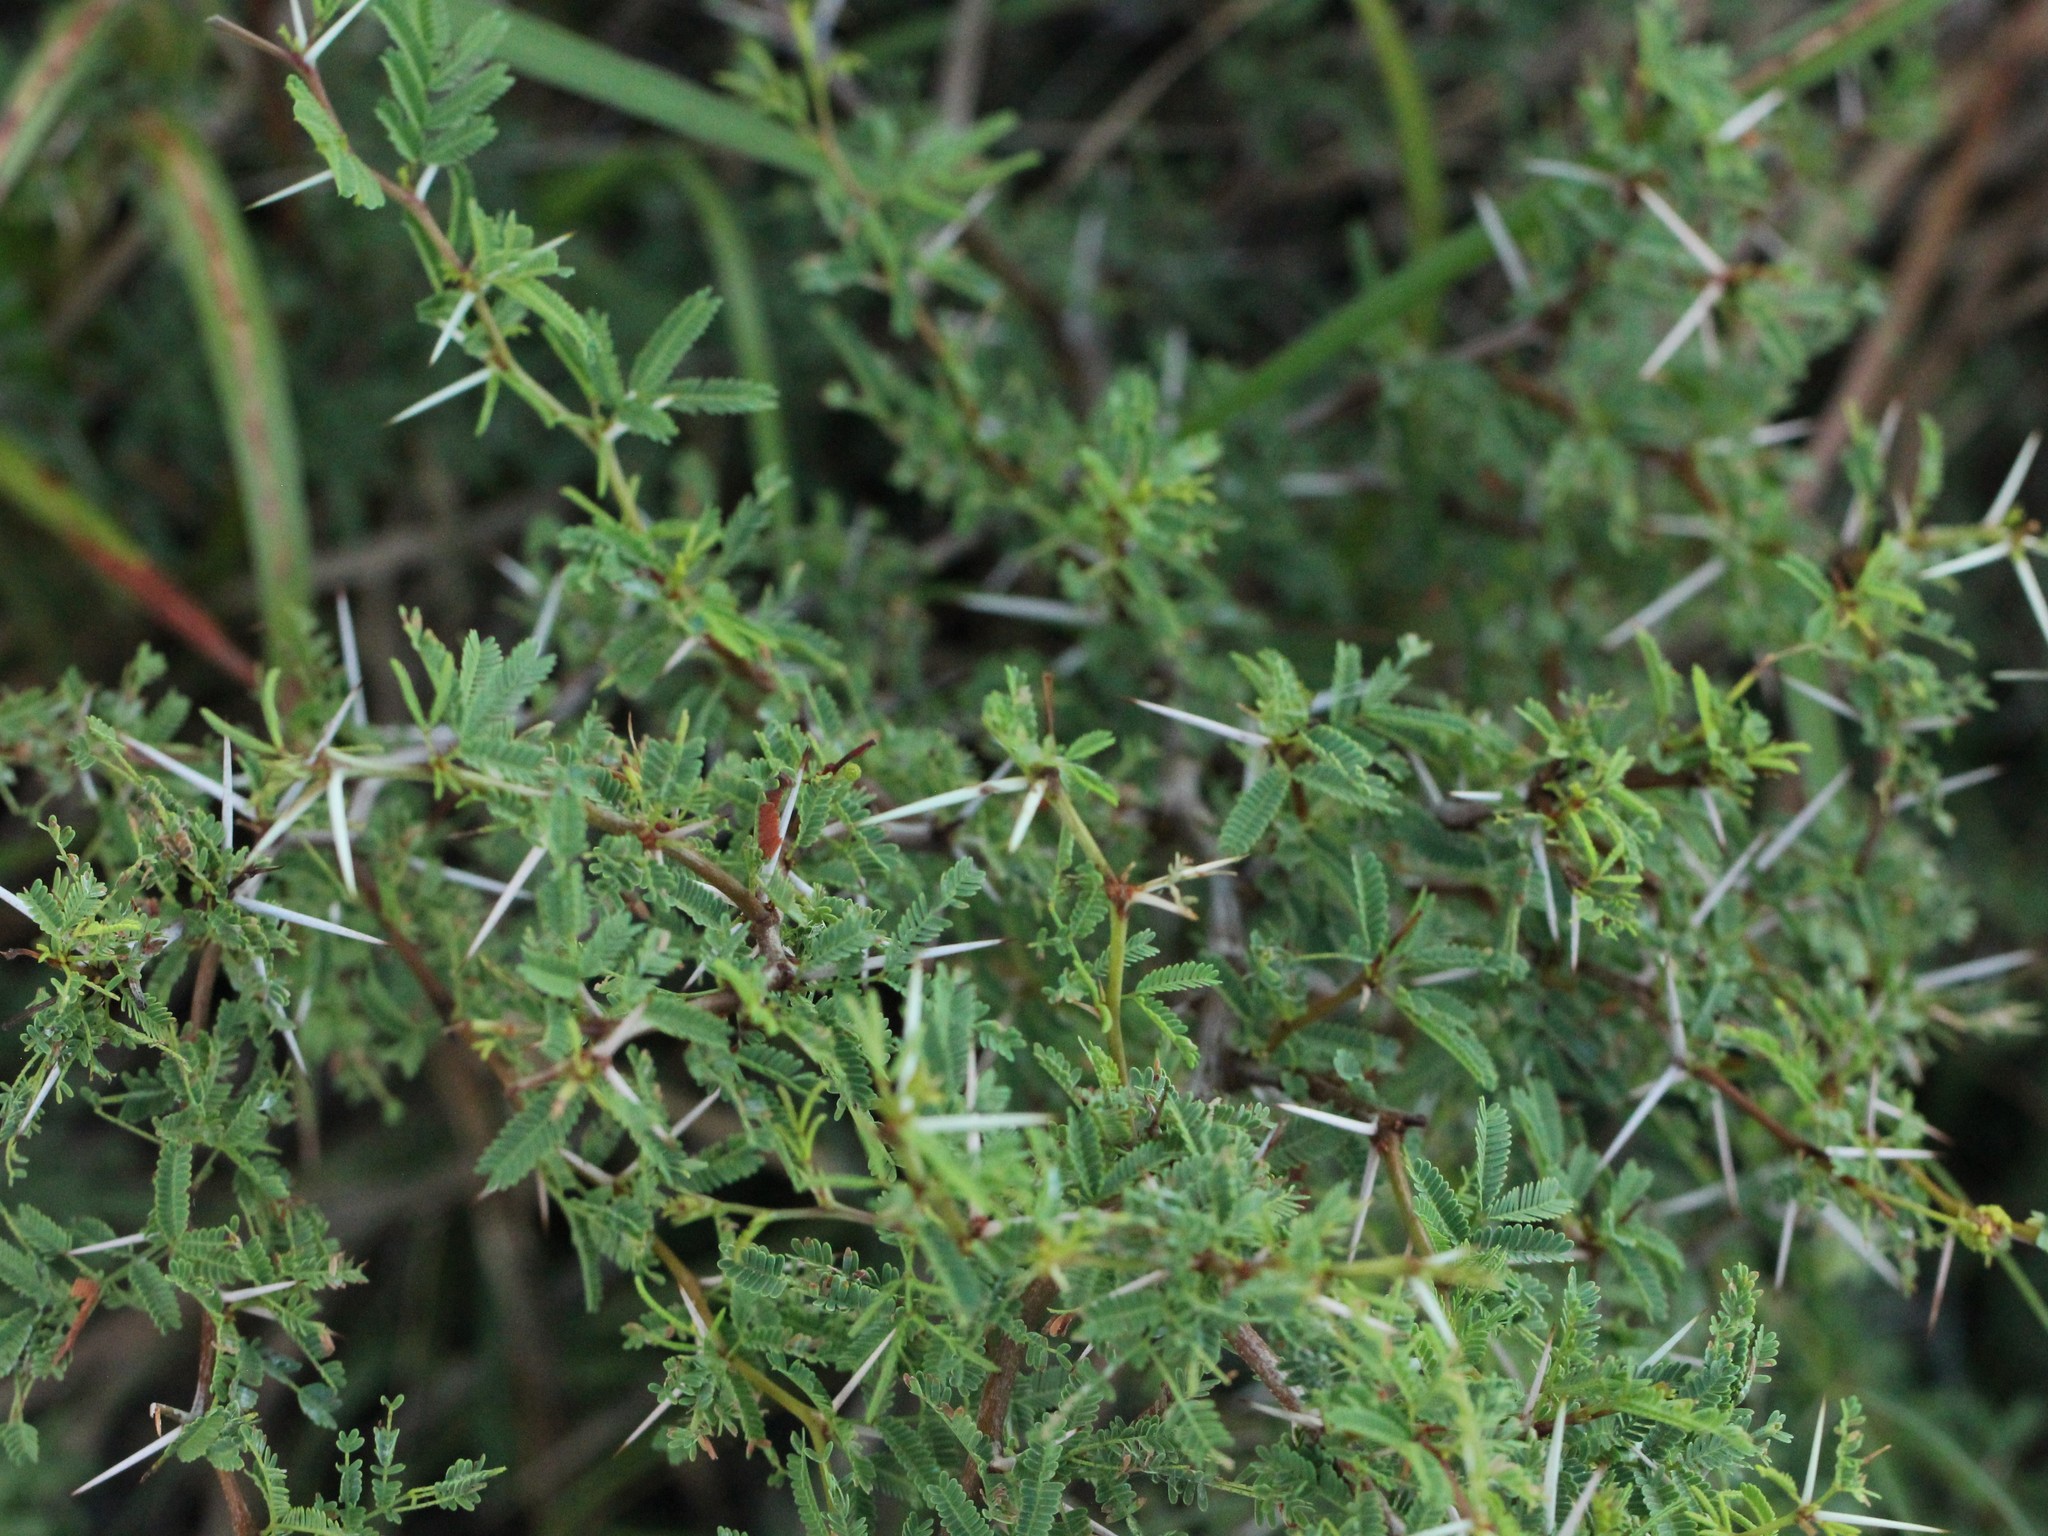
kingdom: Plantae
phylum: Tracheophyta
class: Magnoliopsida
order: Fabales
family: Fabaceae
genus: Vachellia
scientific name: Vachellia farnesiana
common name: Sweet acacia
